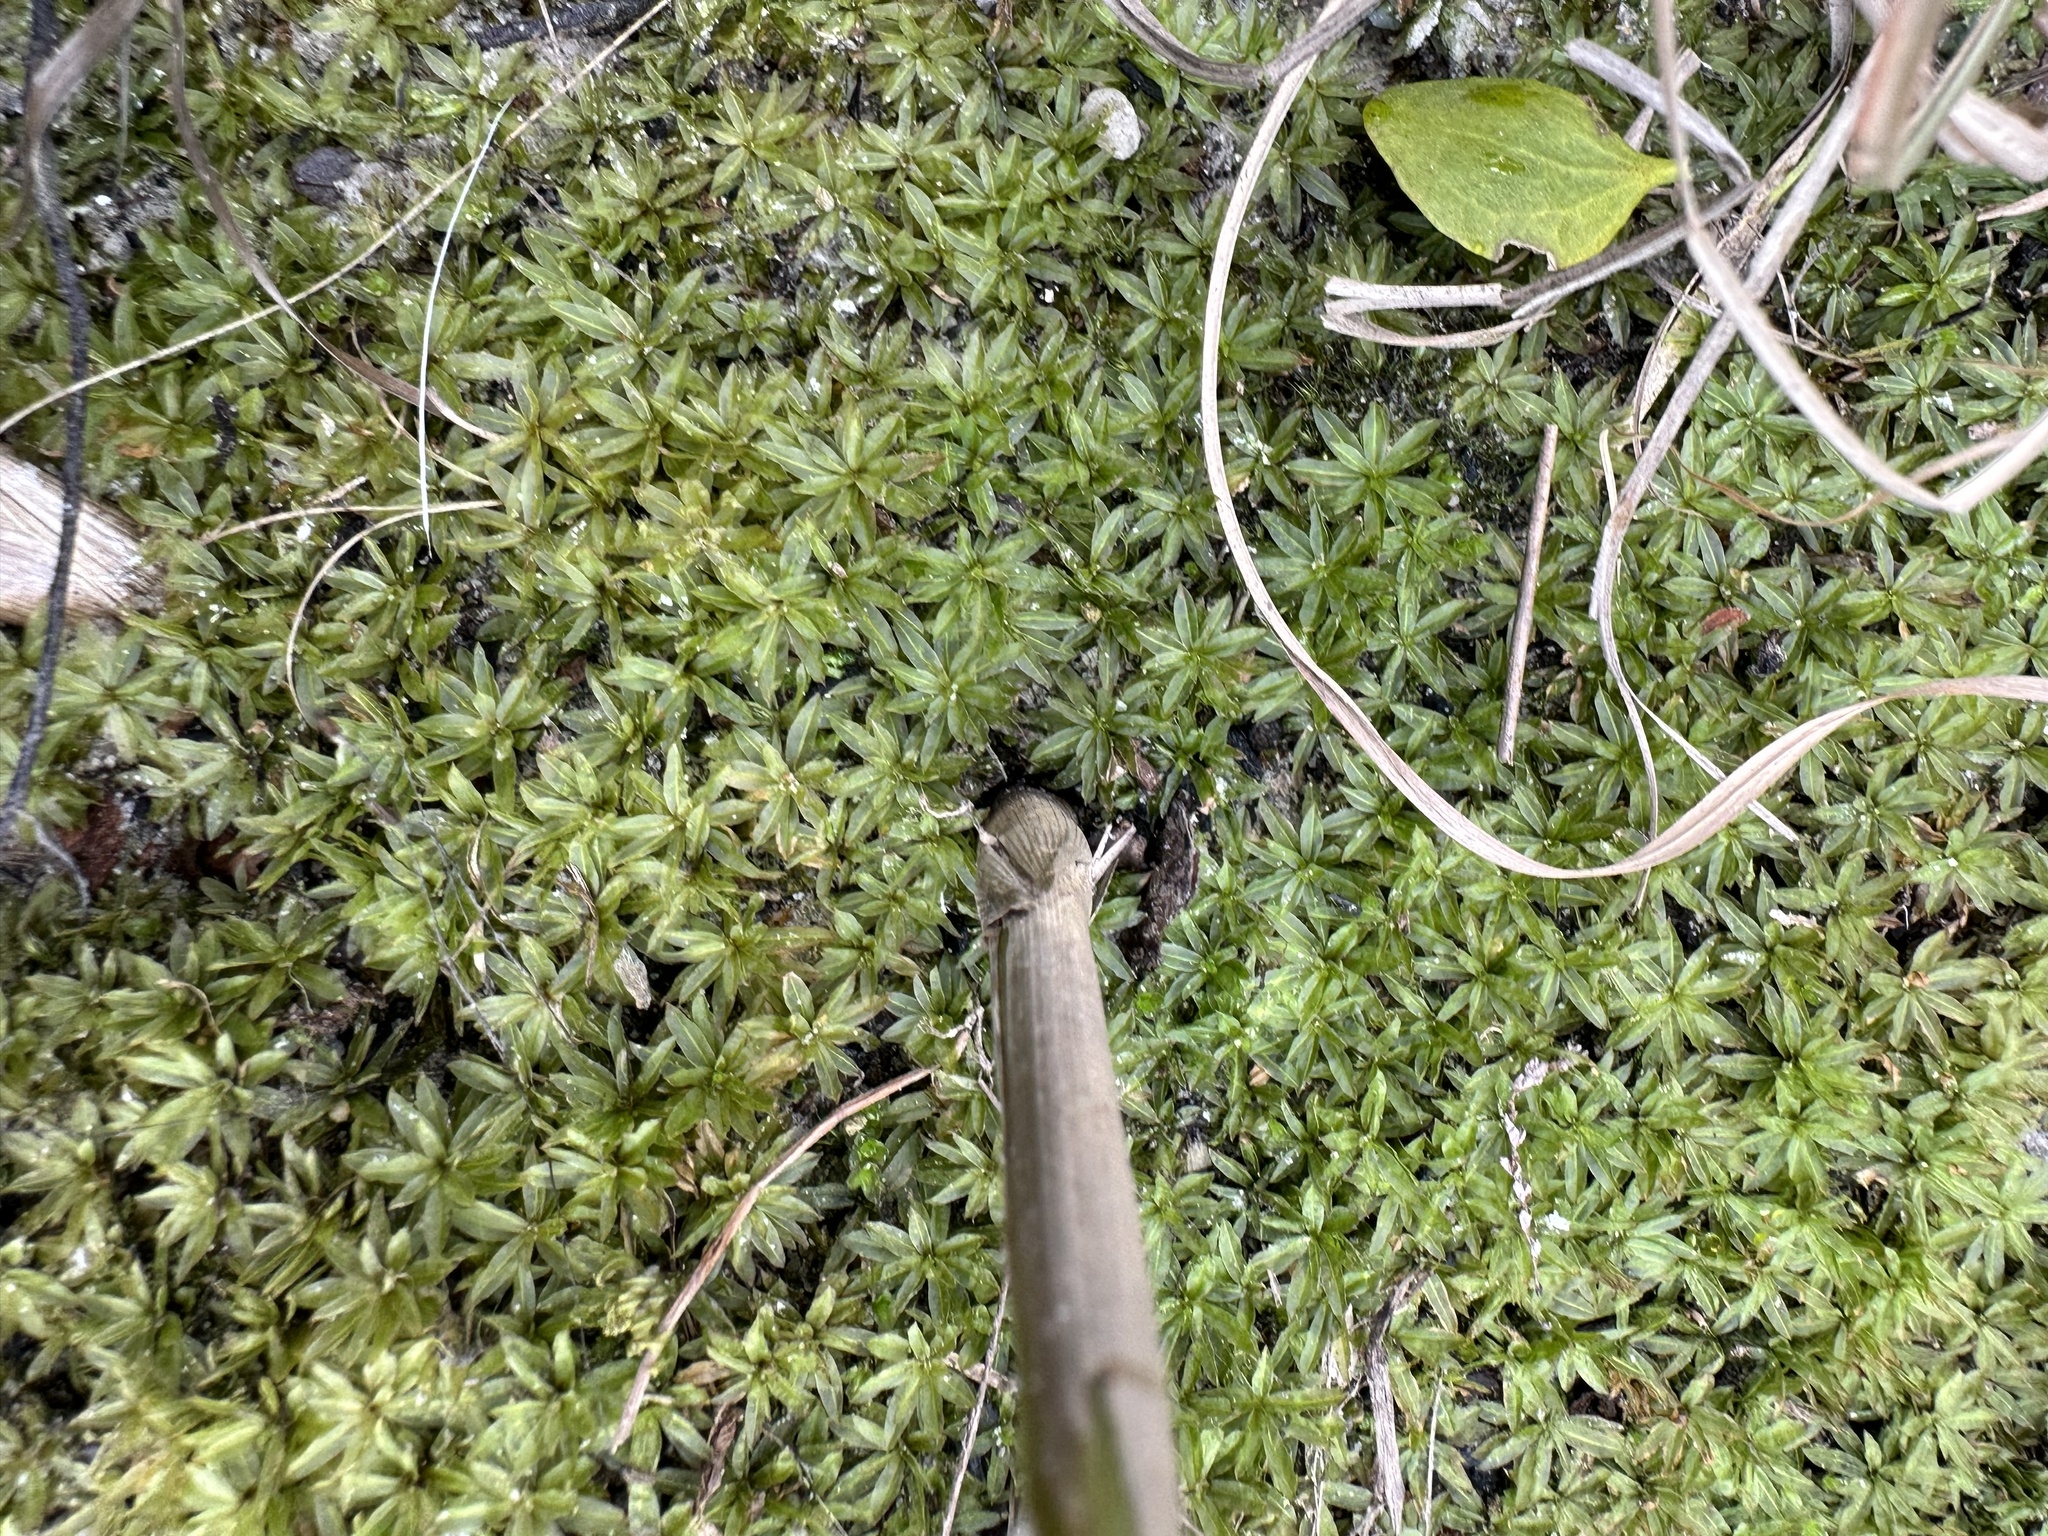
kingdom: Plantae
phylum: Bryophyta
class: Polytrichopsida
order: Polytrichales
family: Polytrichaceae
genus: Atrichum
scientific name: Atrichum crispum
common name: Fountain smoothcap
